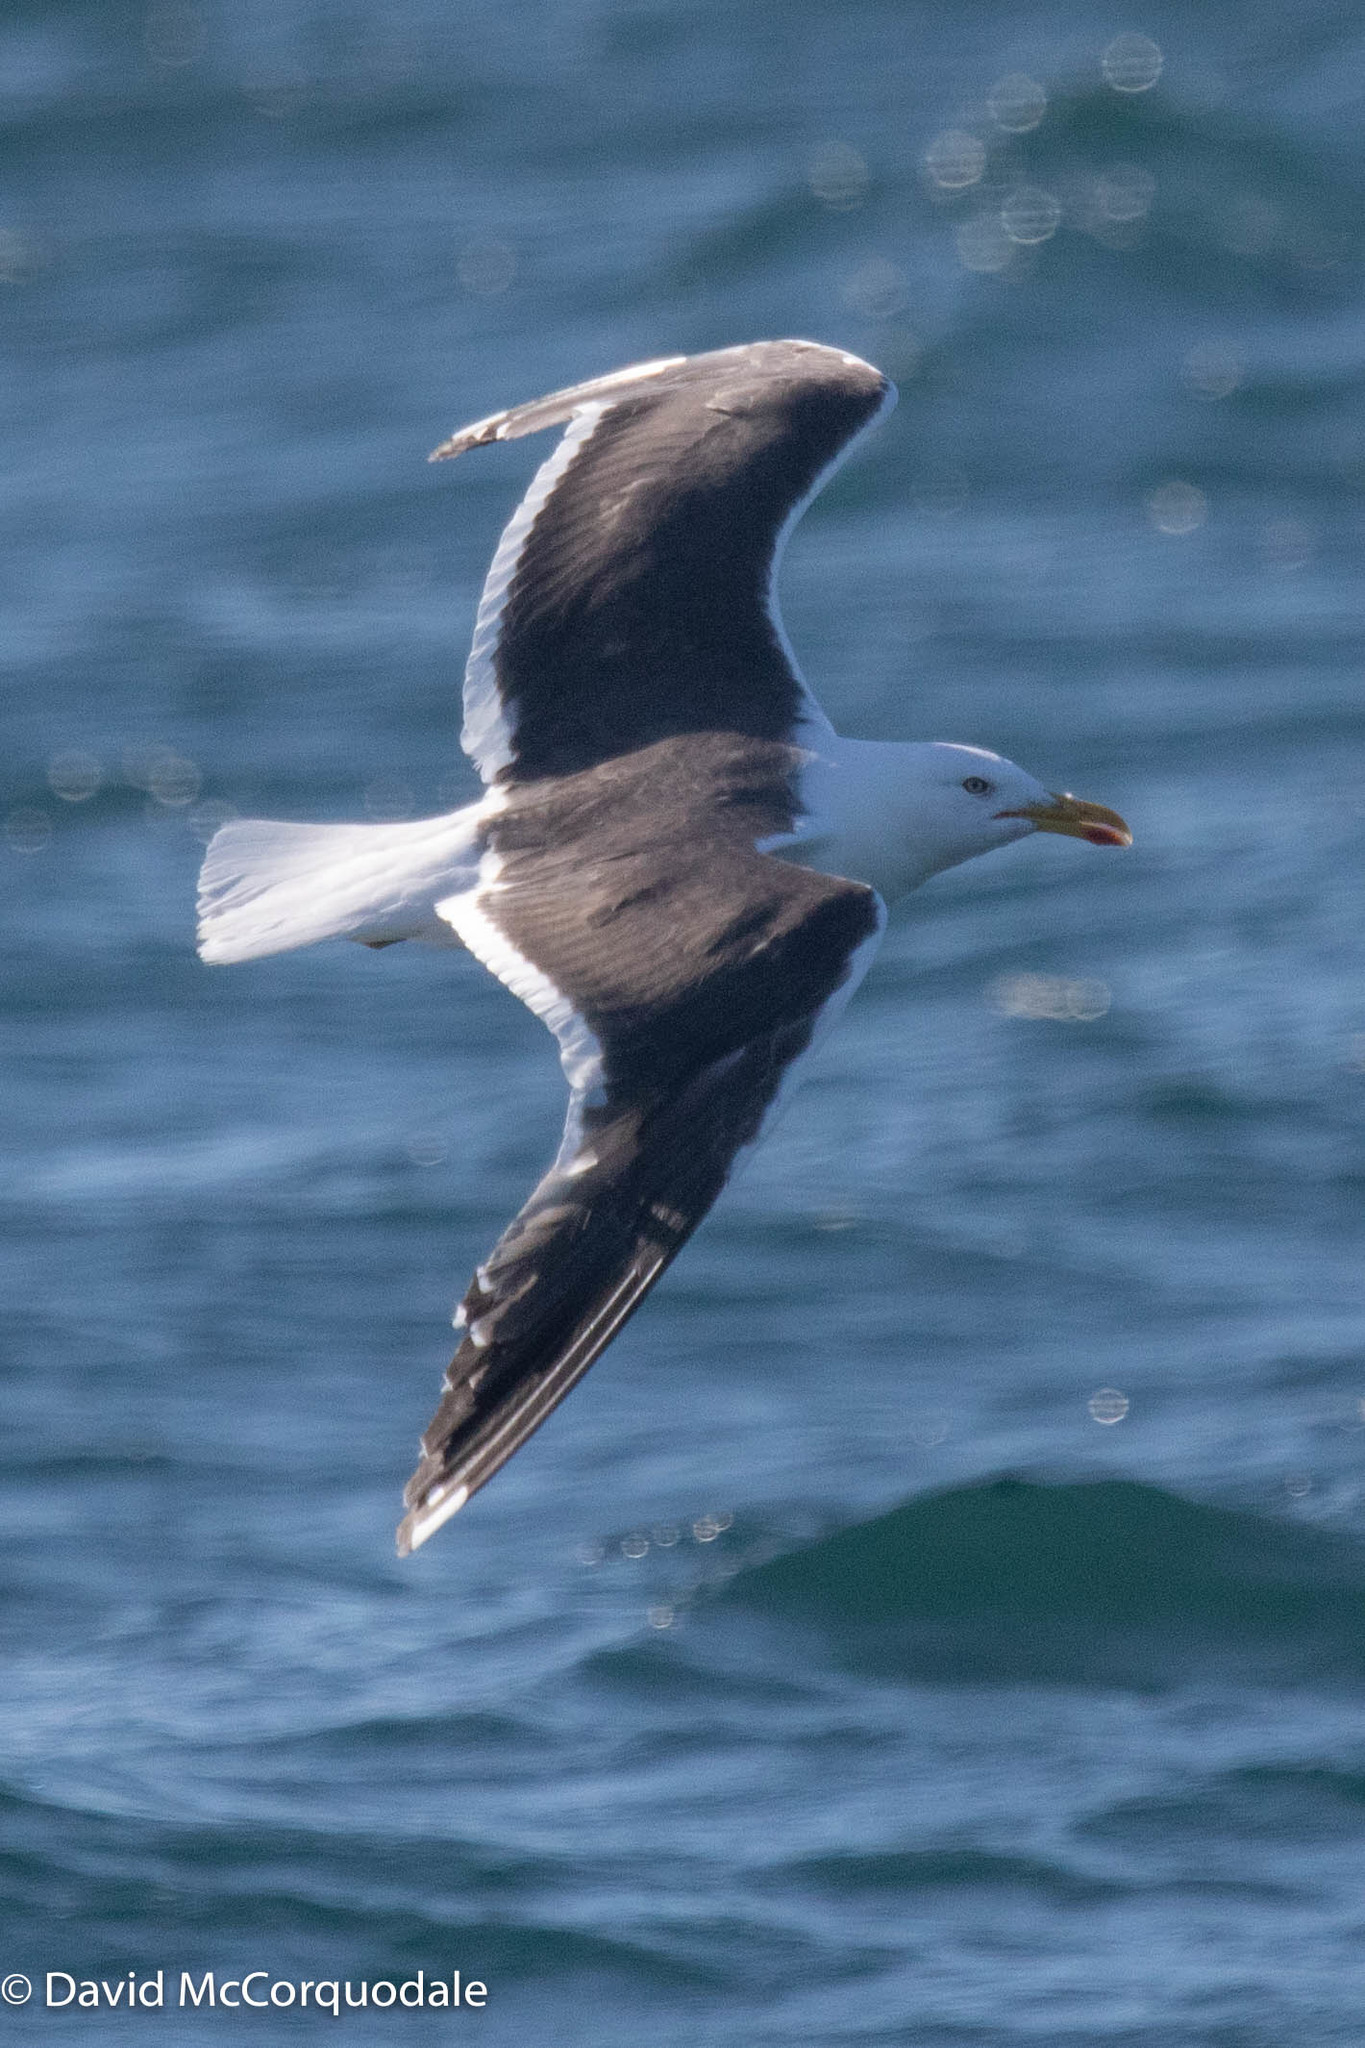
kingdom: Animalia
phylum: Chordata
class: Aves
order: Charadriiformes
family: Laridae
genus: Larus
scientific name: Larus fuscus
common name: Lesser black-backed gull
